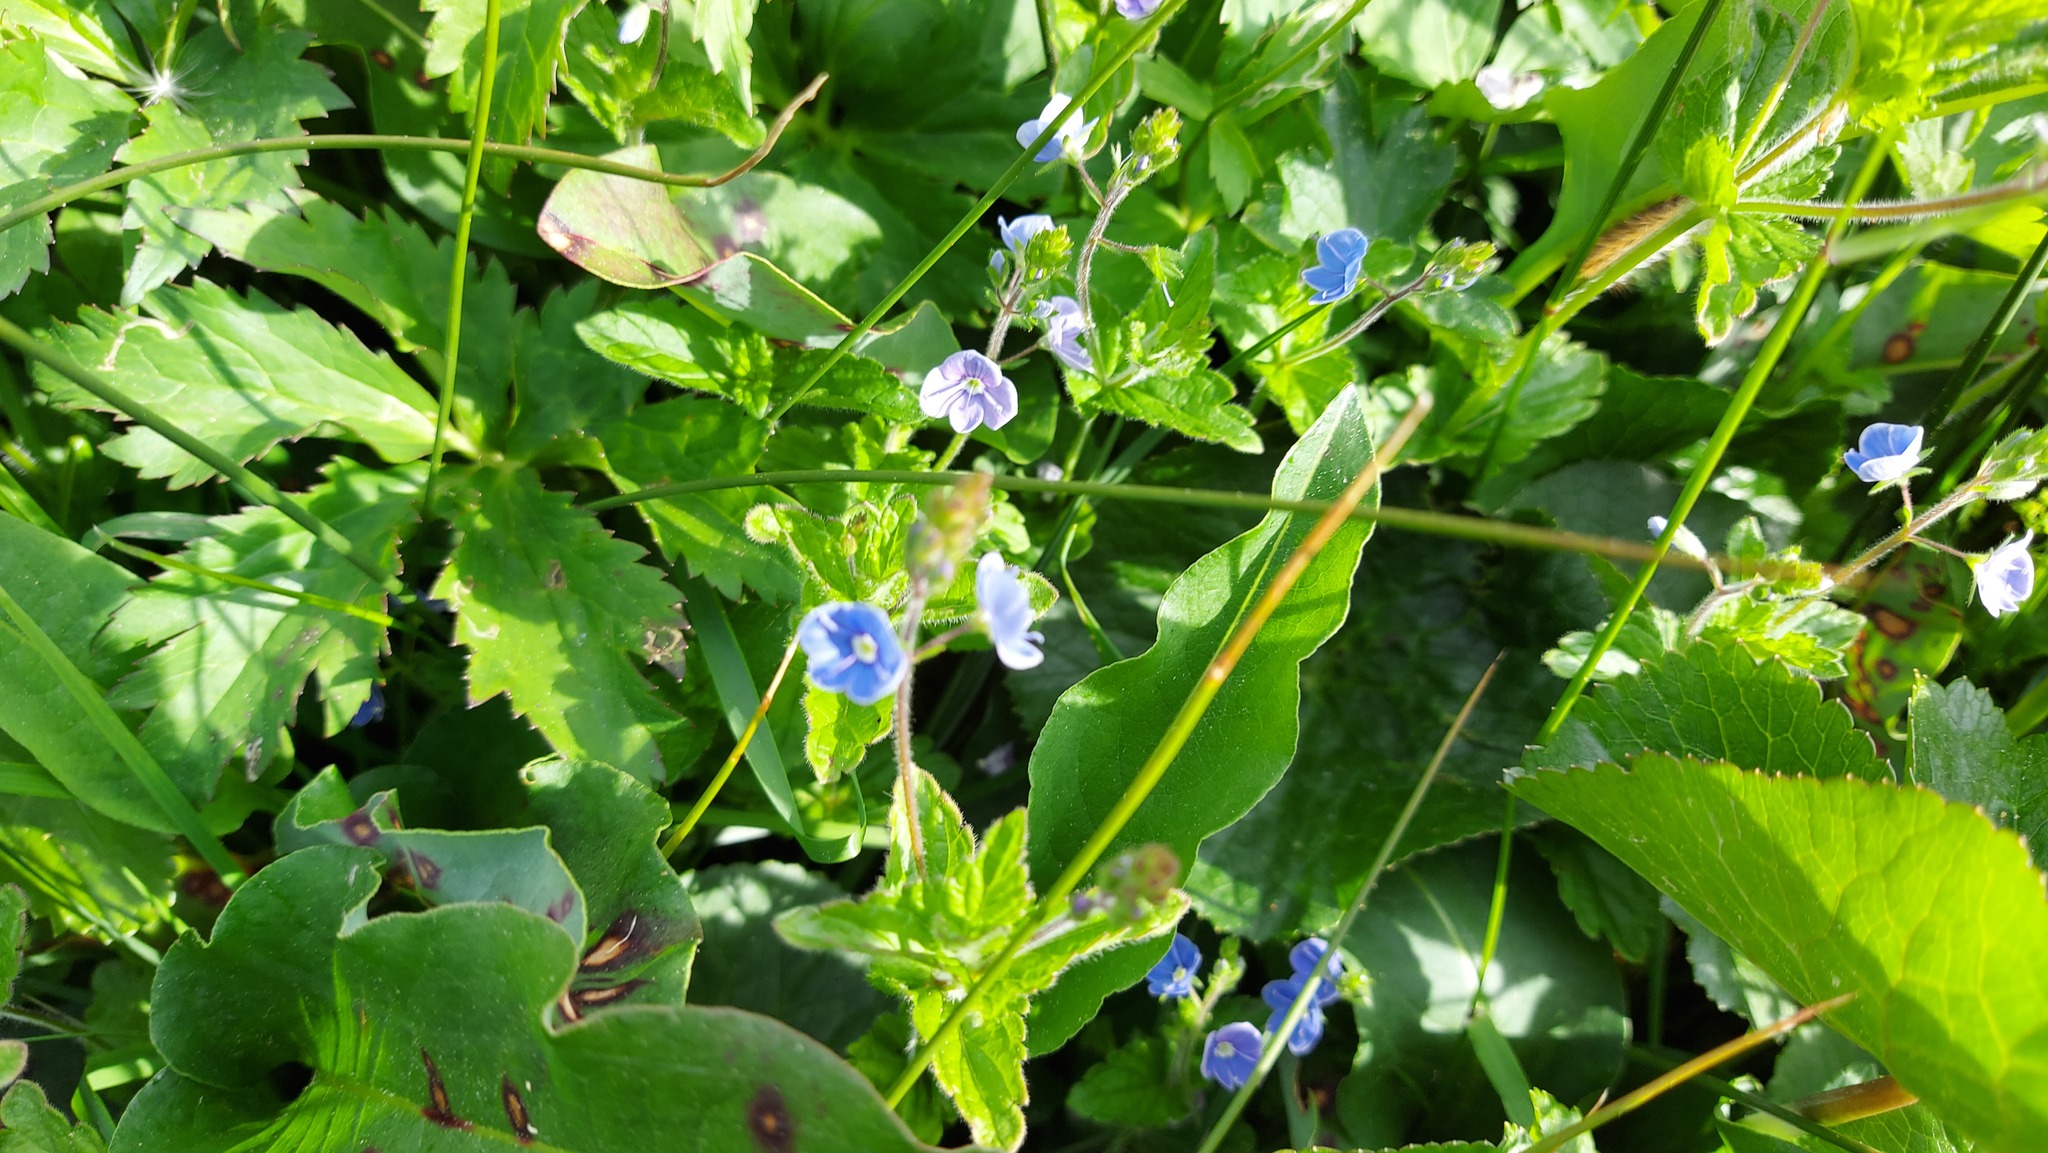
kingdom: Plantae
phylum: Tracheophyta
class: Magnoliopsida
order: Lamiales
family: Plantaginaceae
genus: Veronica
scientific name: Veronica chamaedrys
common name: Germander speedwell
